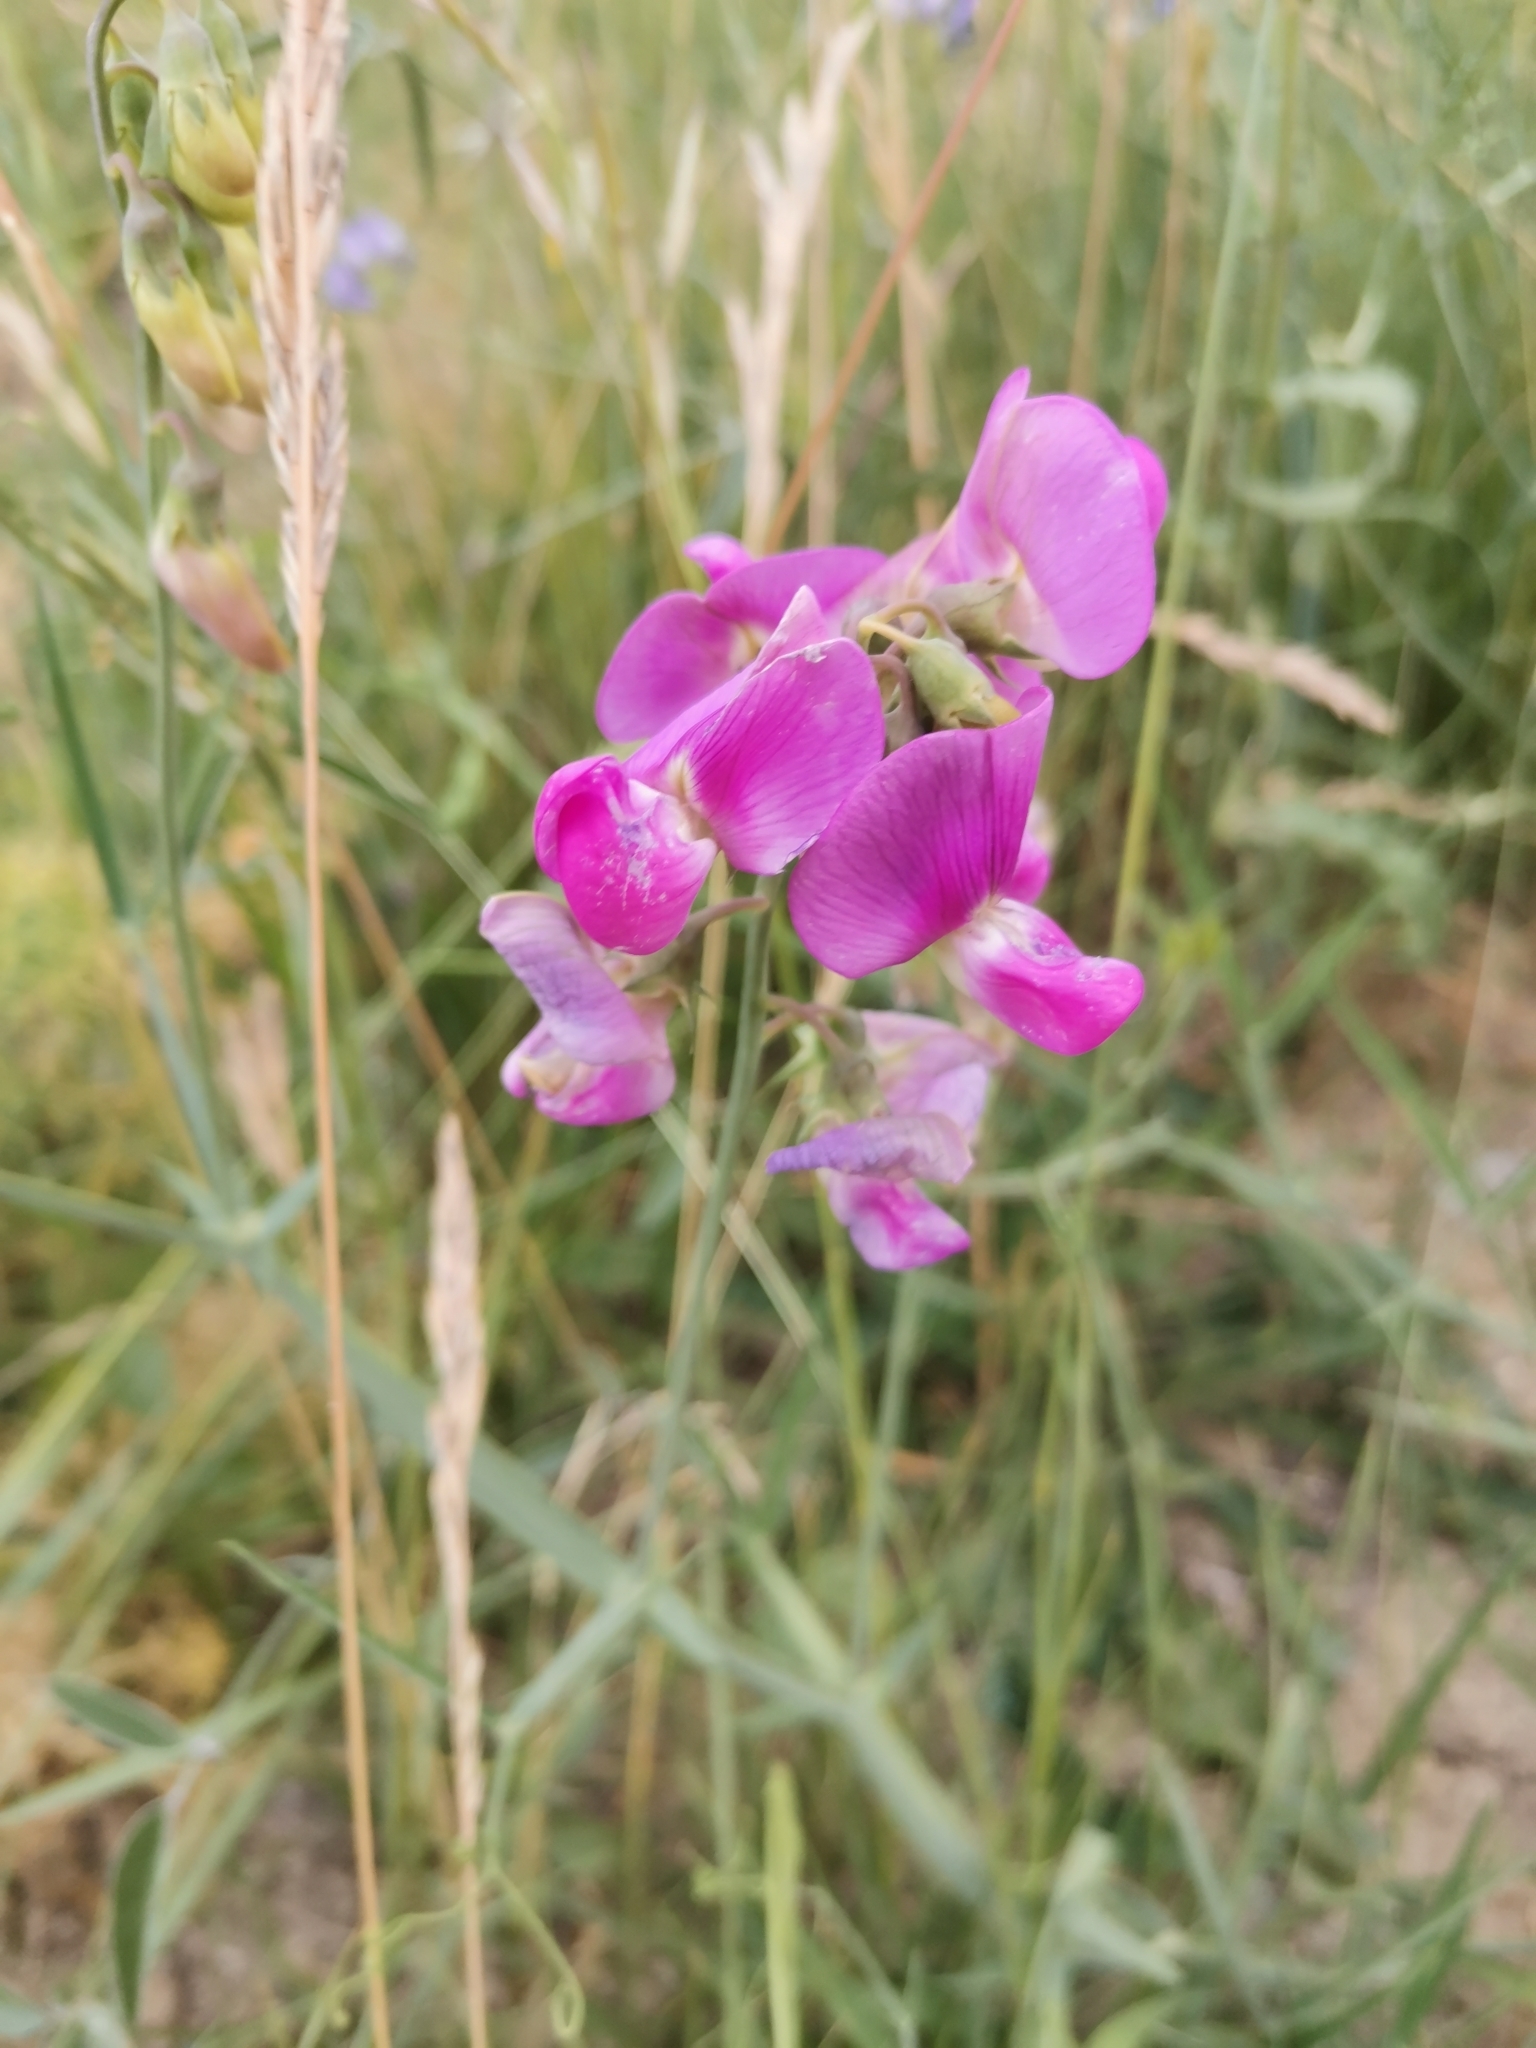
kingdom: Plantae
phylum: Tracheophyta
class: Magnoliopsida
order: Fabales
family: Fabaceae
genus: Lathyrus
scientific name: Lathyrus latifolius
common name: Perennial pea
